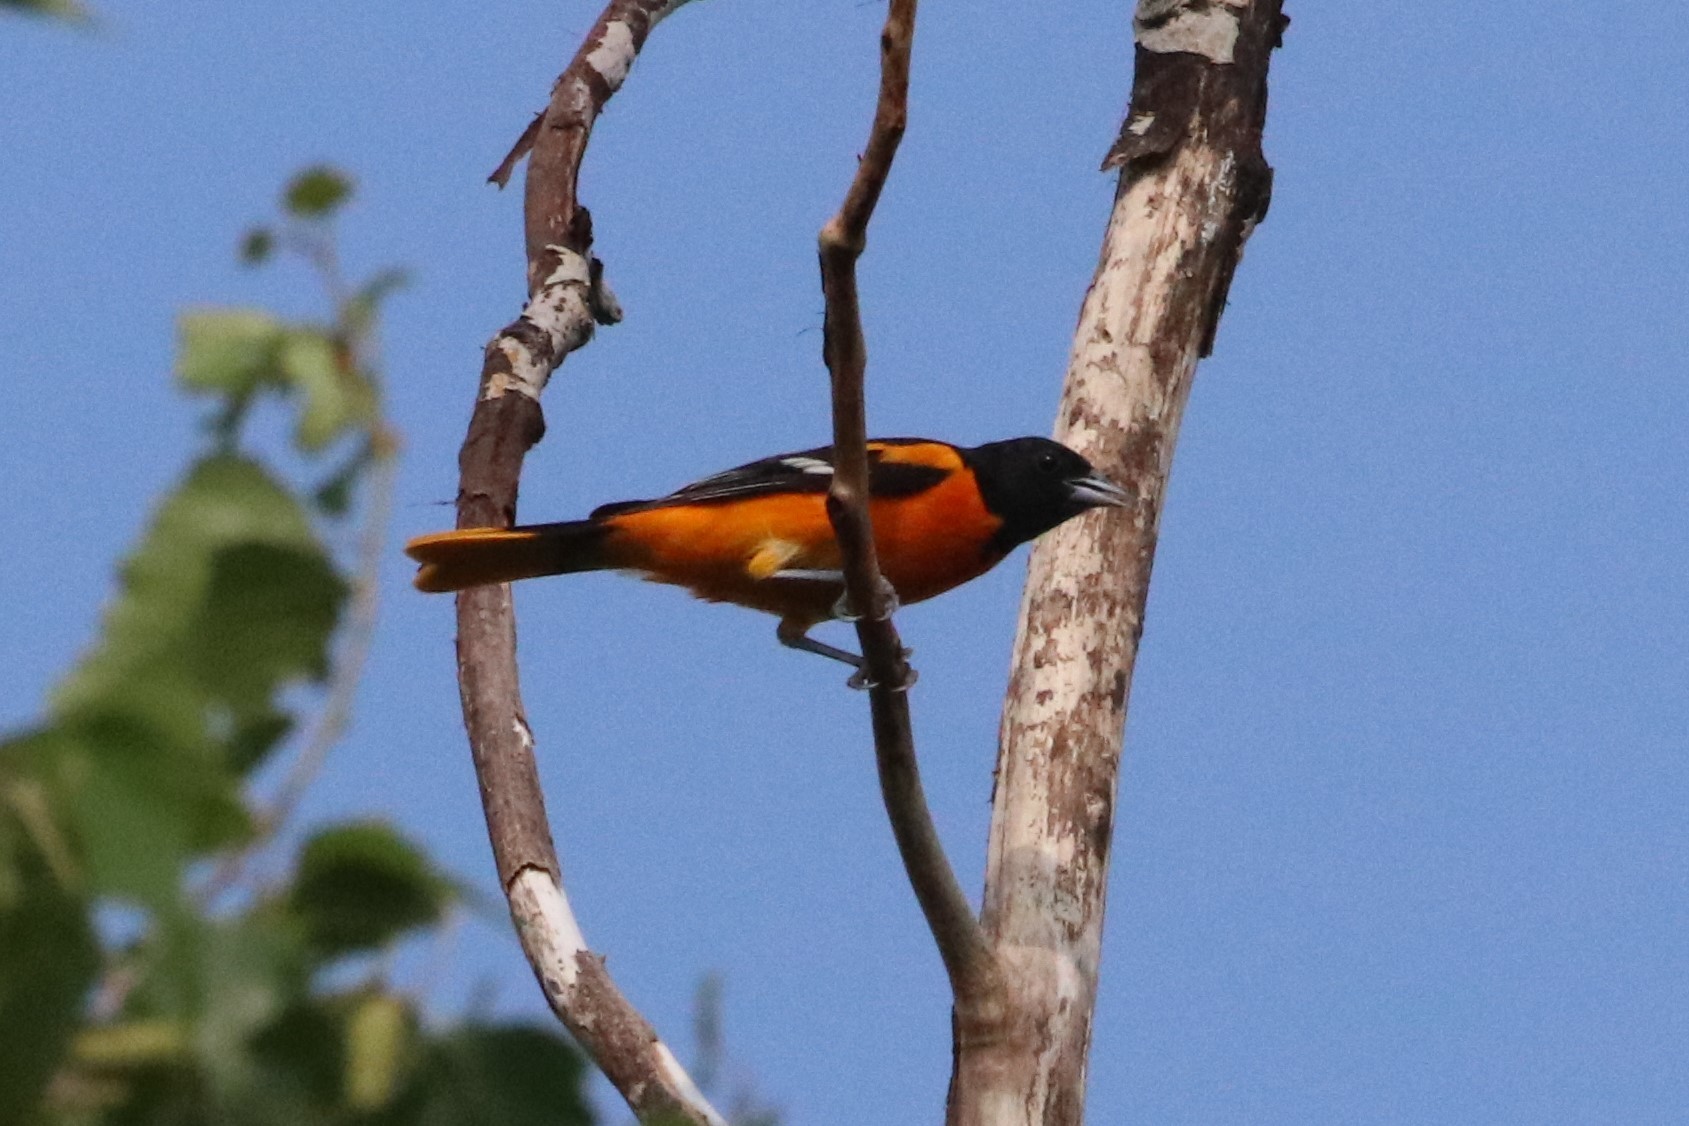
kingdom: Animalia
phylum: Chordata
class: Aves
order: Passeriformes
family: Icteridae
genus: Icterus
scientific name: Icterus galbula
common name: Baltimore oriole
